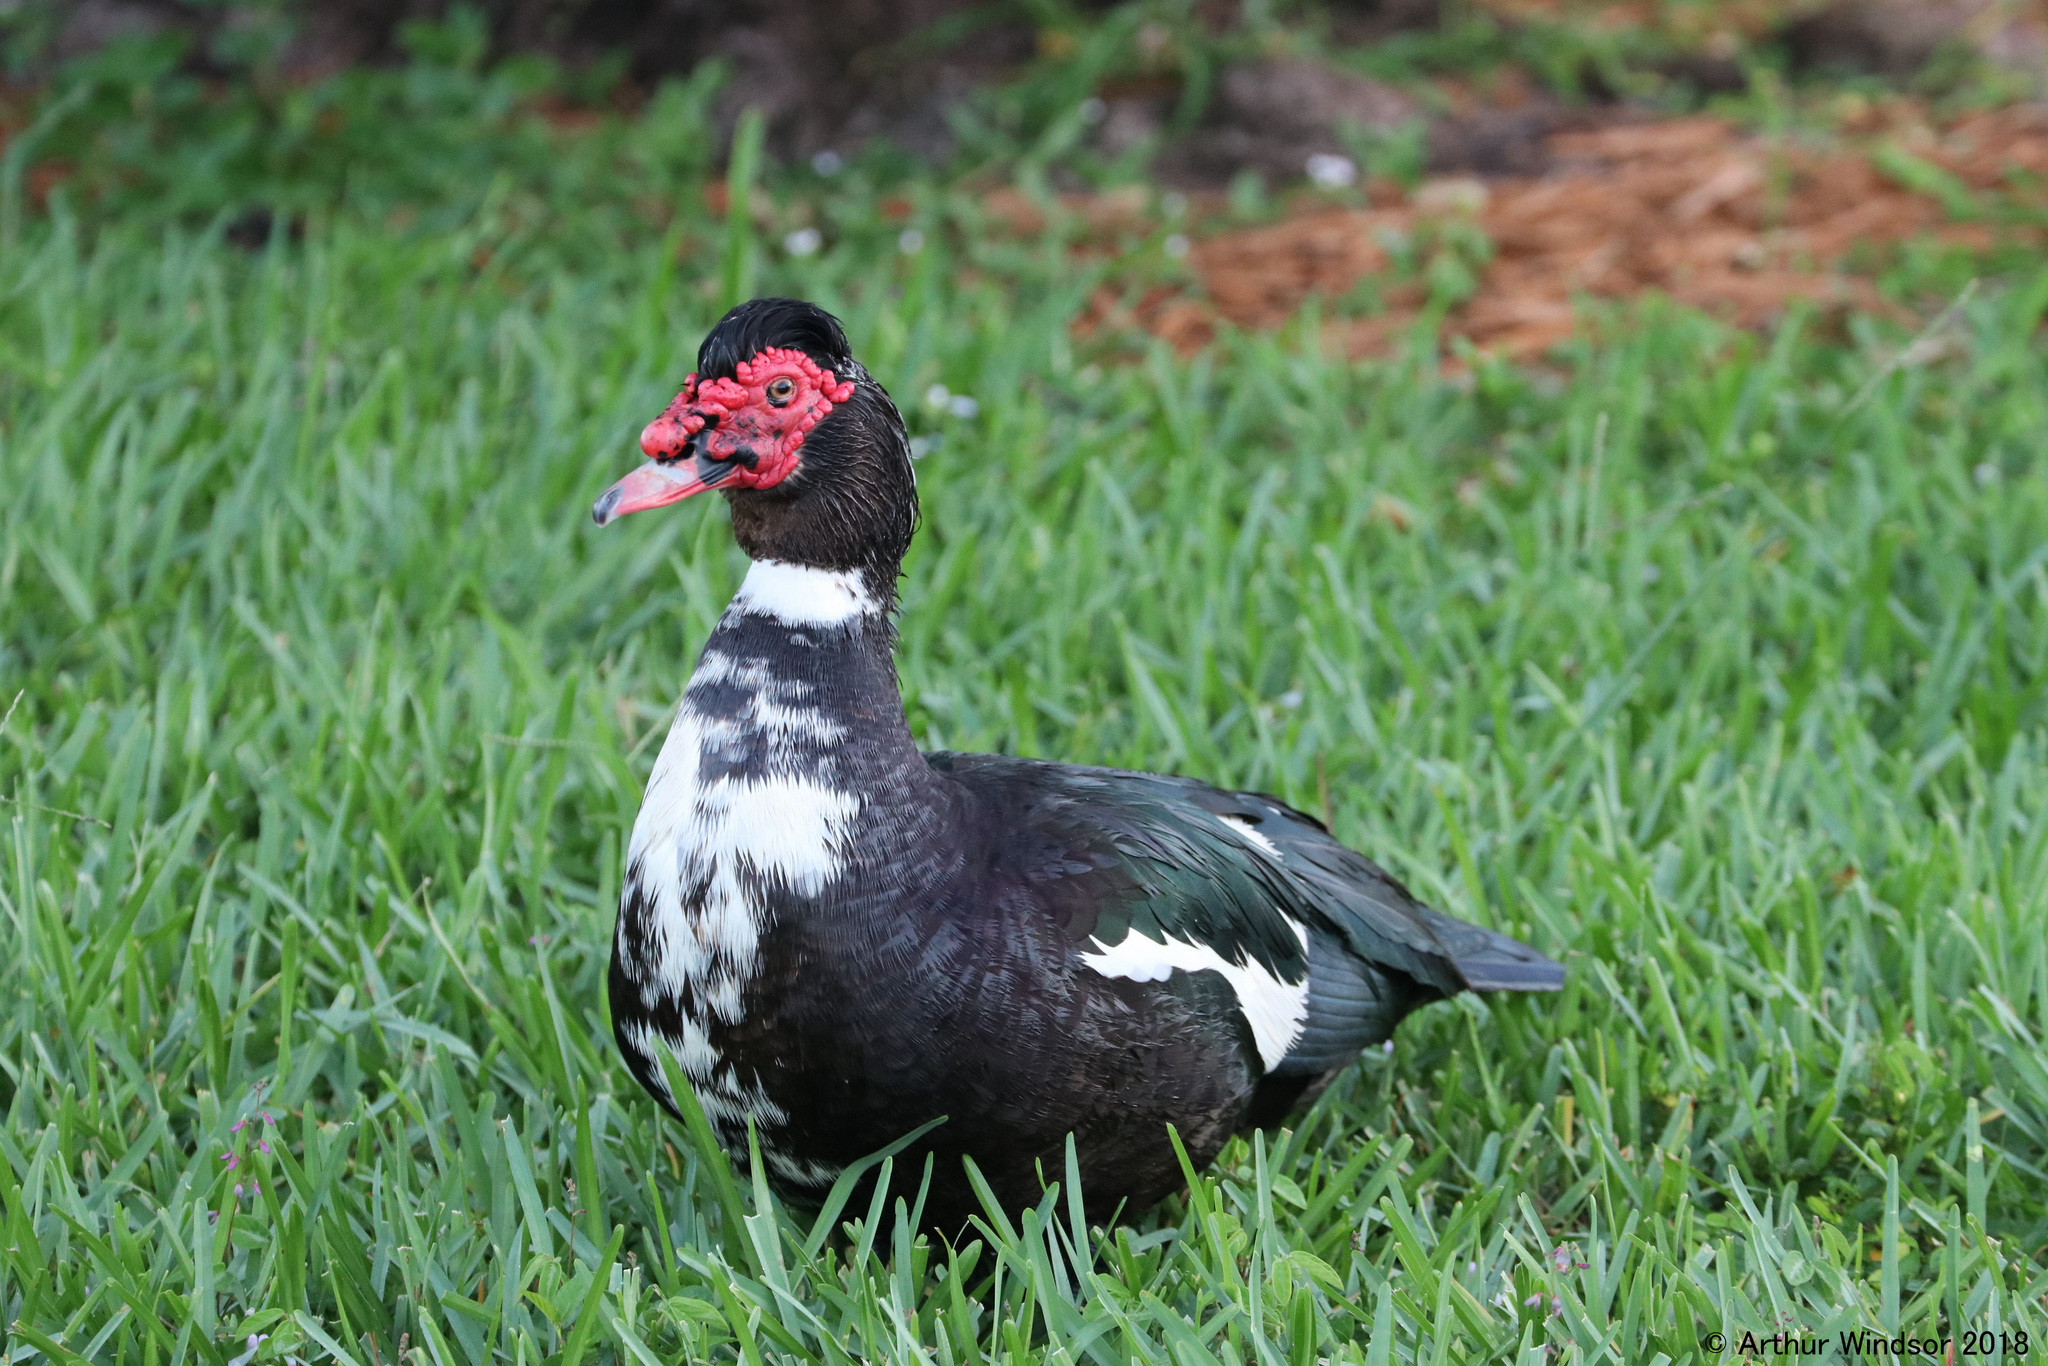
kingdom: Animalia
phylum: Chordata
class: Aves
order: Anseriformes
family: Anatidae
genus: Cairina
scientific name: Cairina moschata
